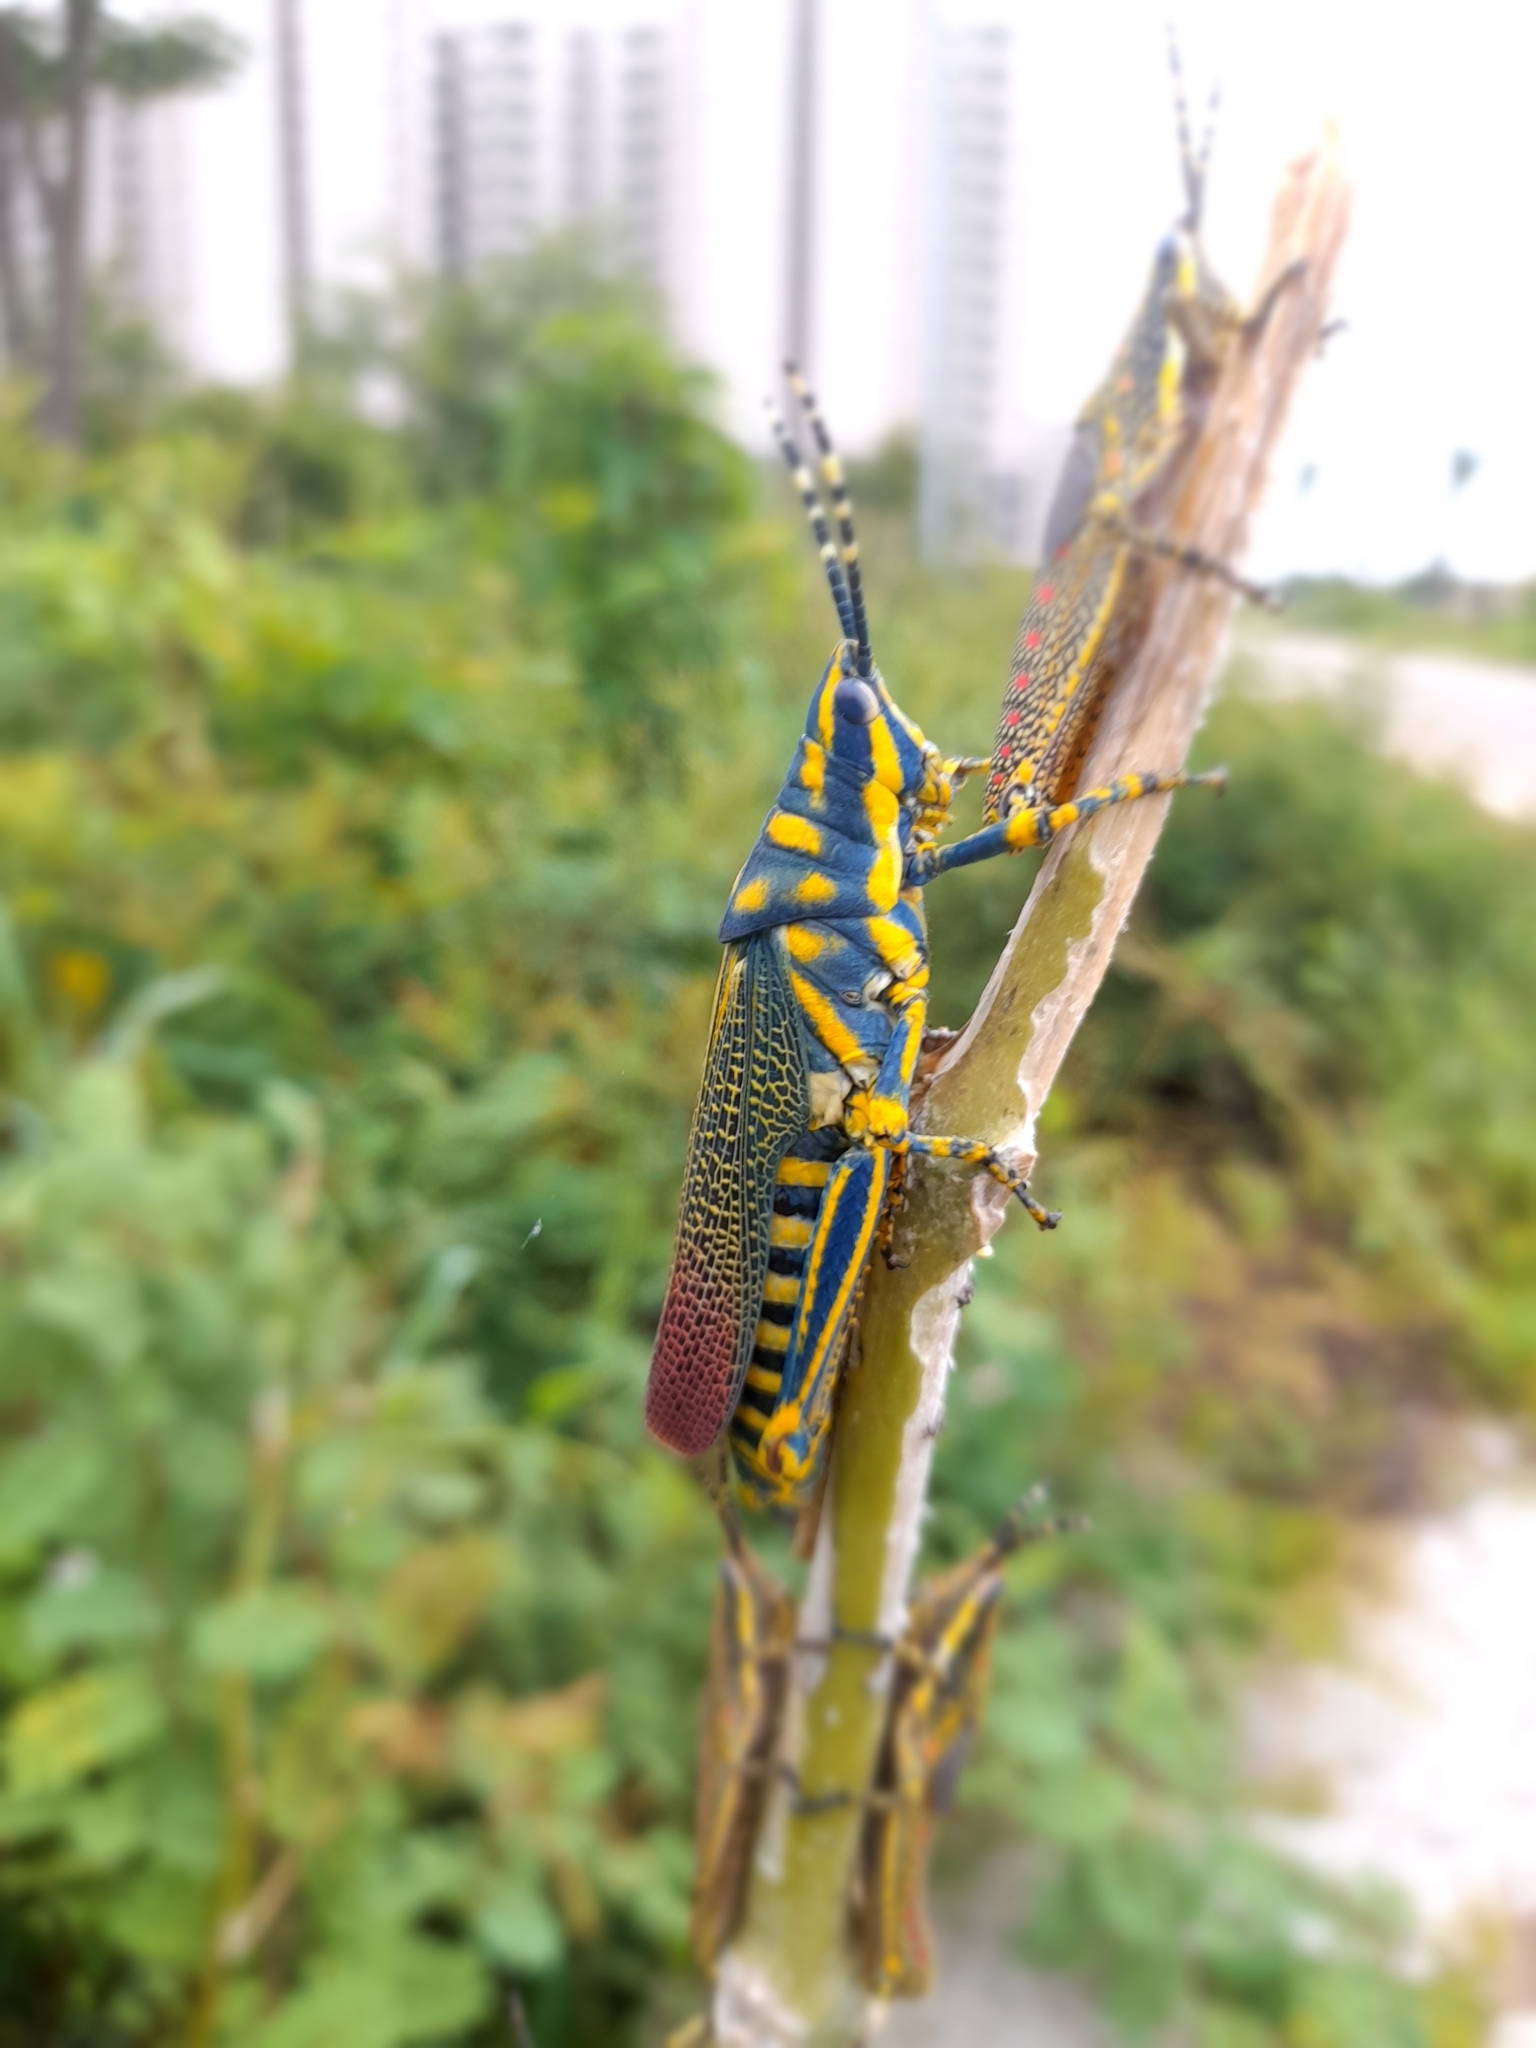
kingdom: Animalia
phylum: Arthropoda
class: Insecta
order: Orthoptera
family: Pyrgomorphidae
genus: Poekilocerus
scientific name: Poekilocerus pictus
